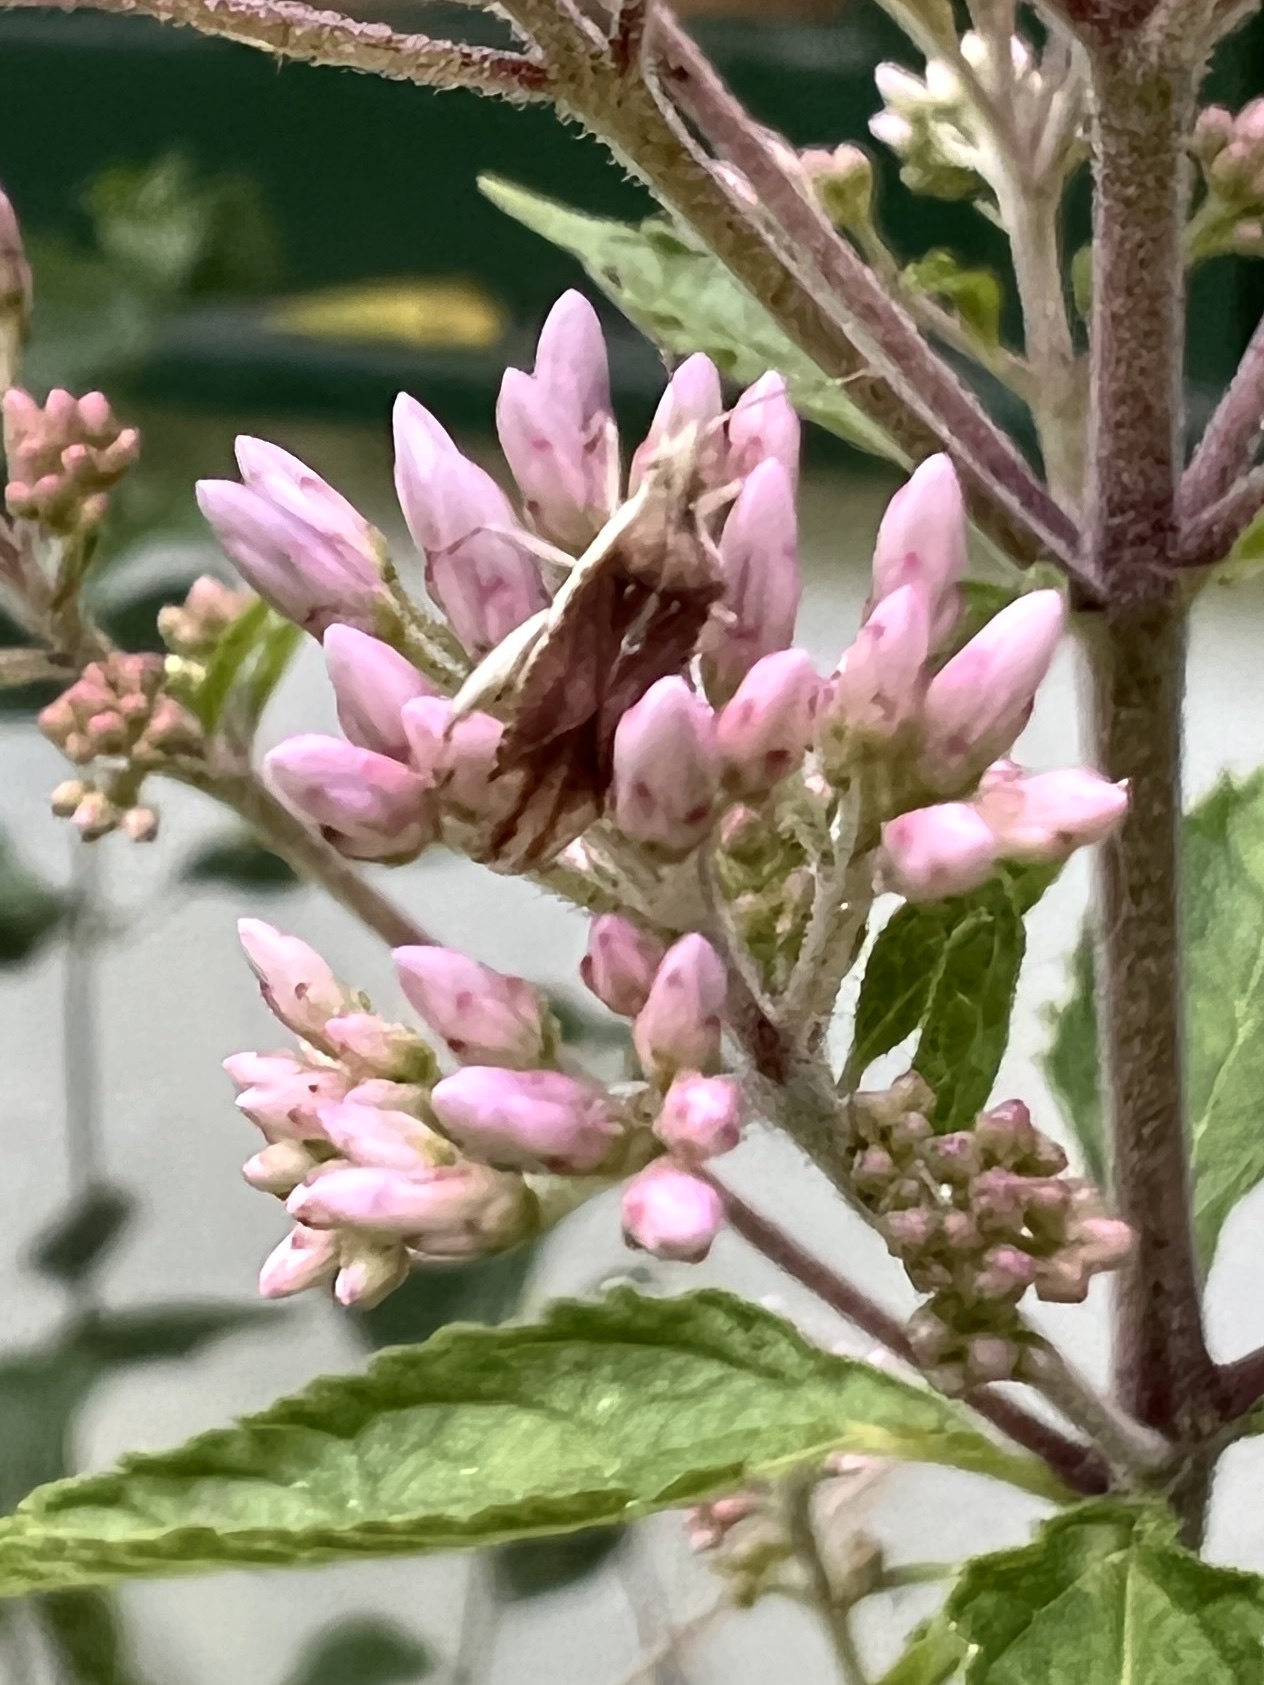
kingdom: Animalia
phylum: Arthropoda
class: Insecta
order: Hemiptera
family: Rhopalidae
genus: Harmostes
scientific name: Harmostes fraterculus
